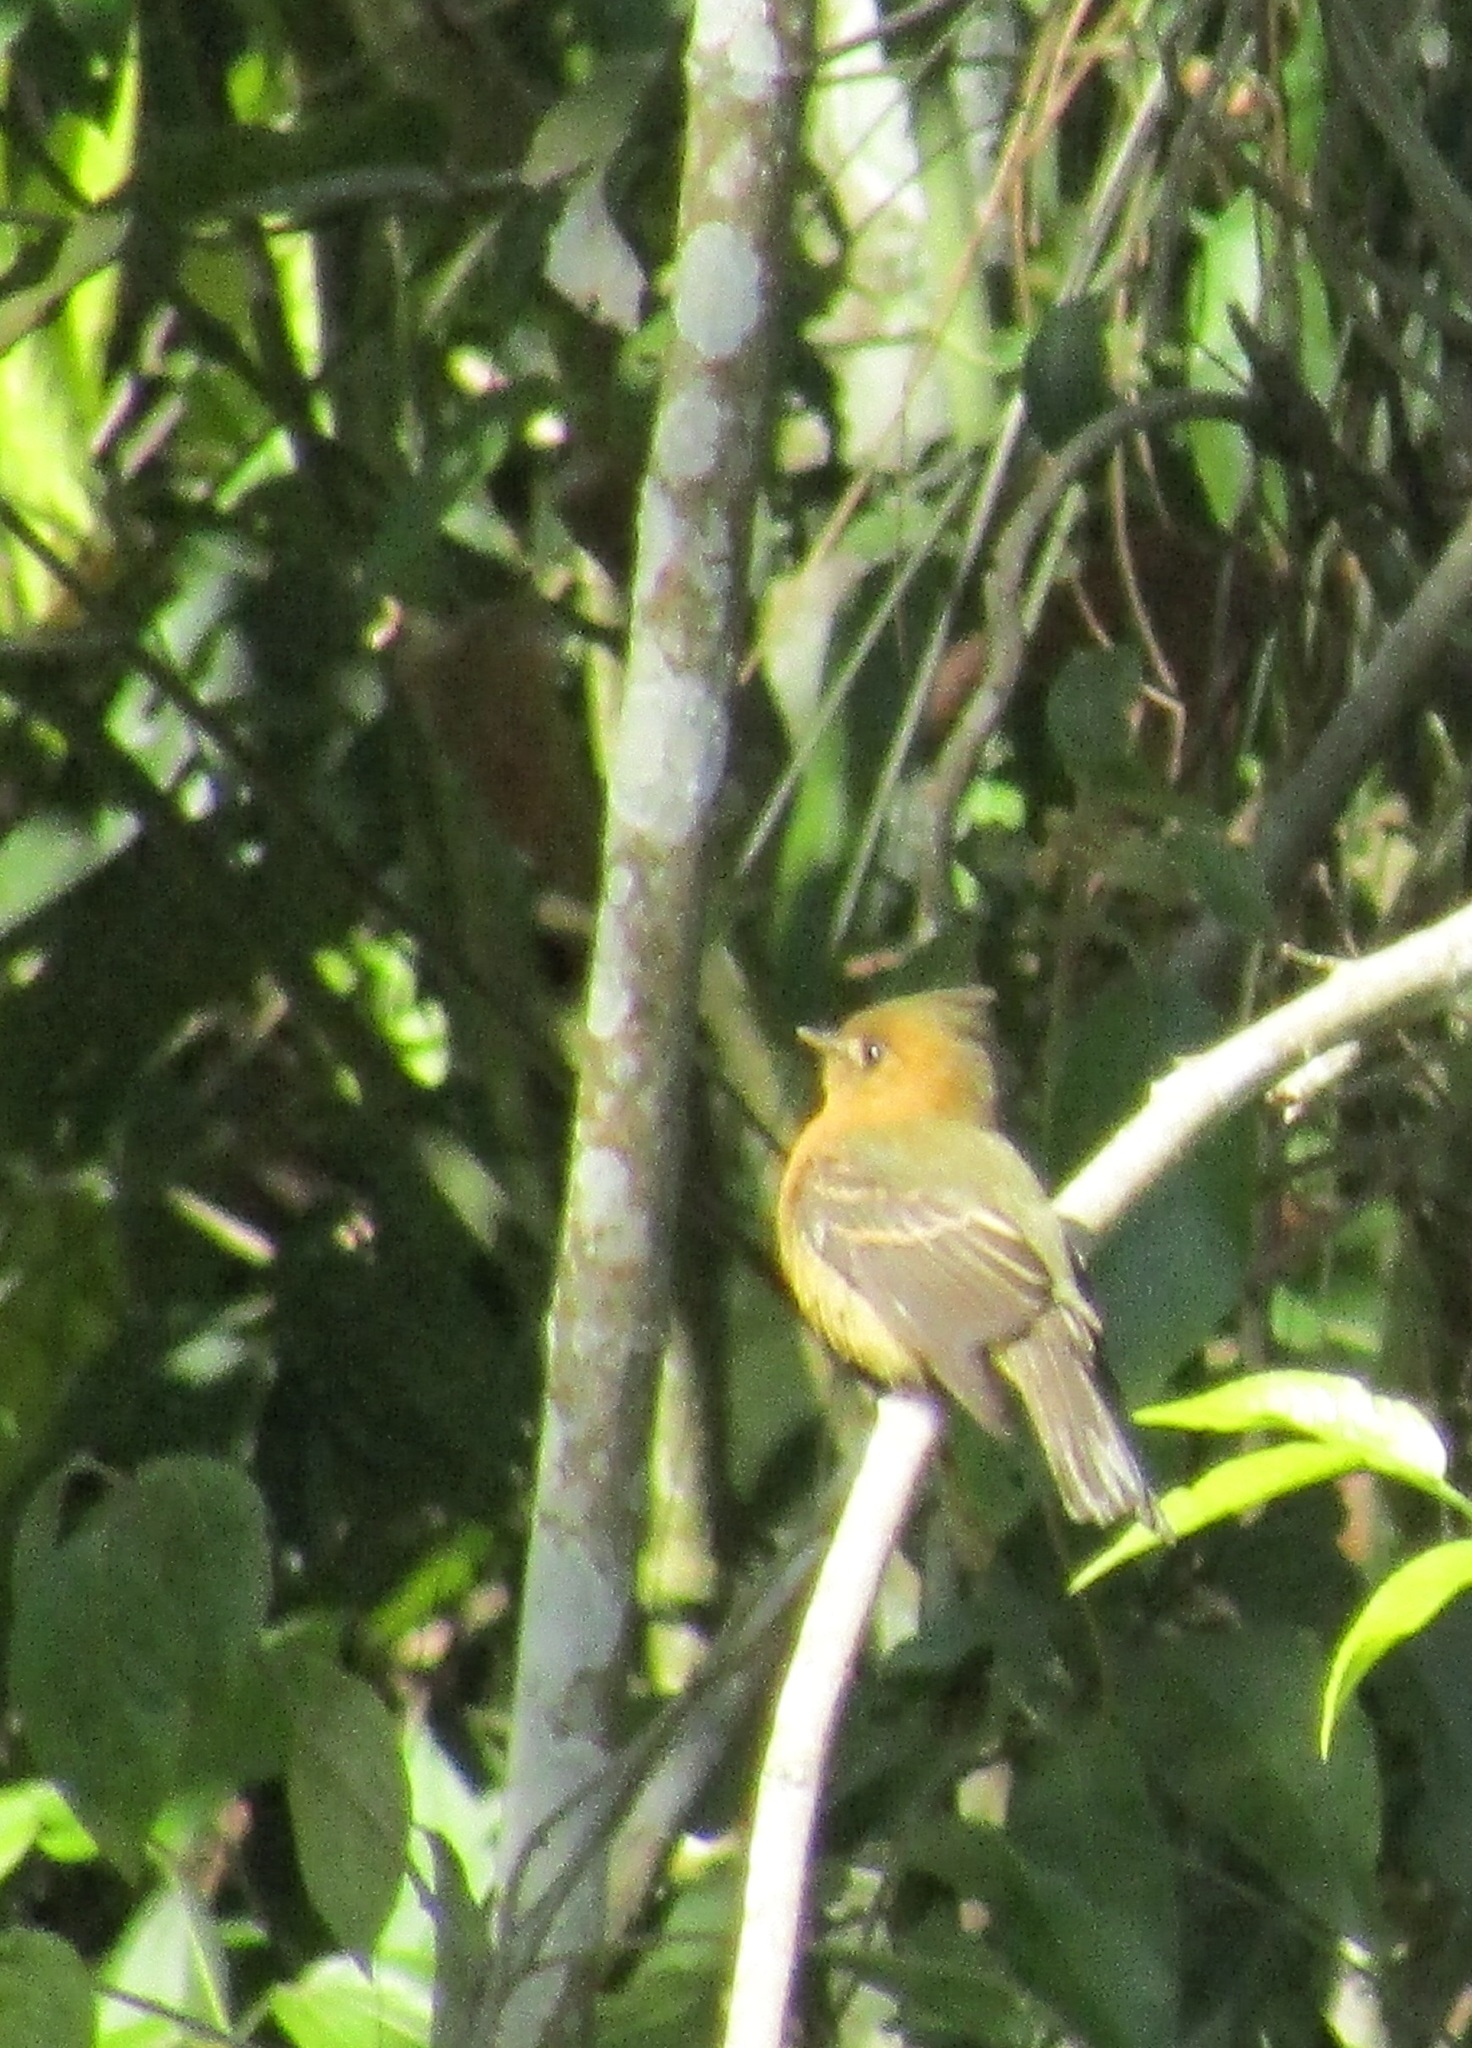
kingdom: Animalia
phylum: Chordata
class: Aves
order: Passeriformes
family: Tyrannidae
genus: Mitrephanes
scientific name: Mitrephanes phaeocercus
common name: Northern tufted flycatcher
